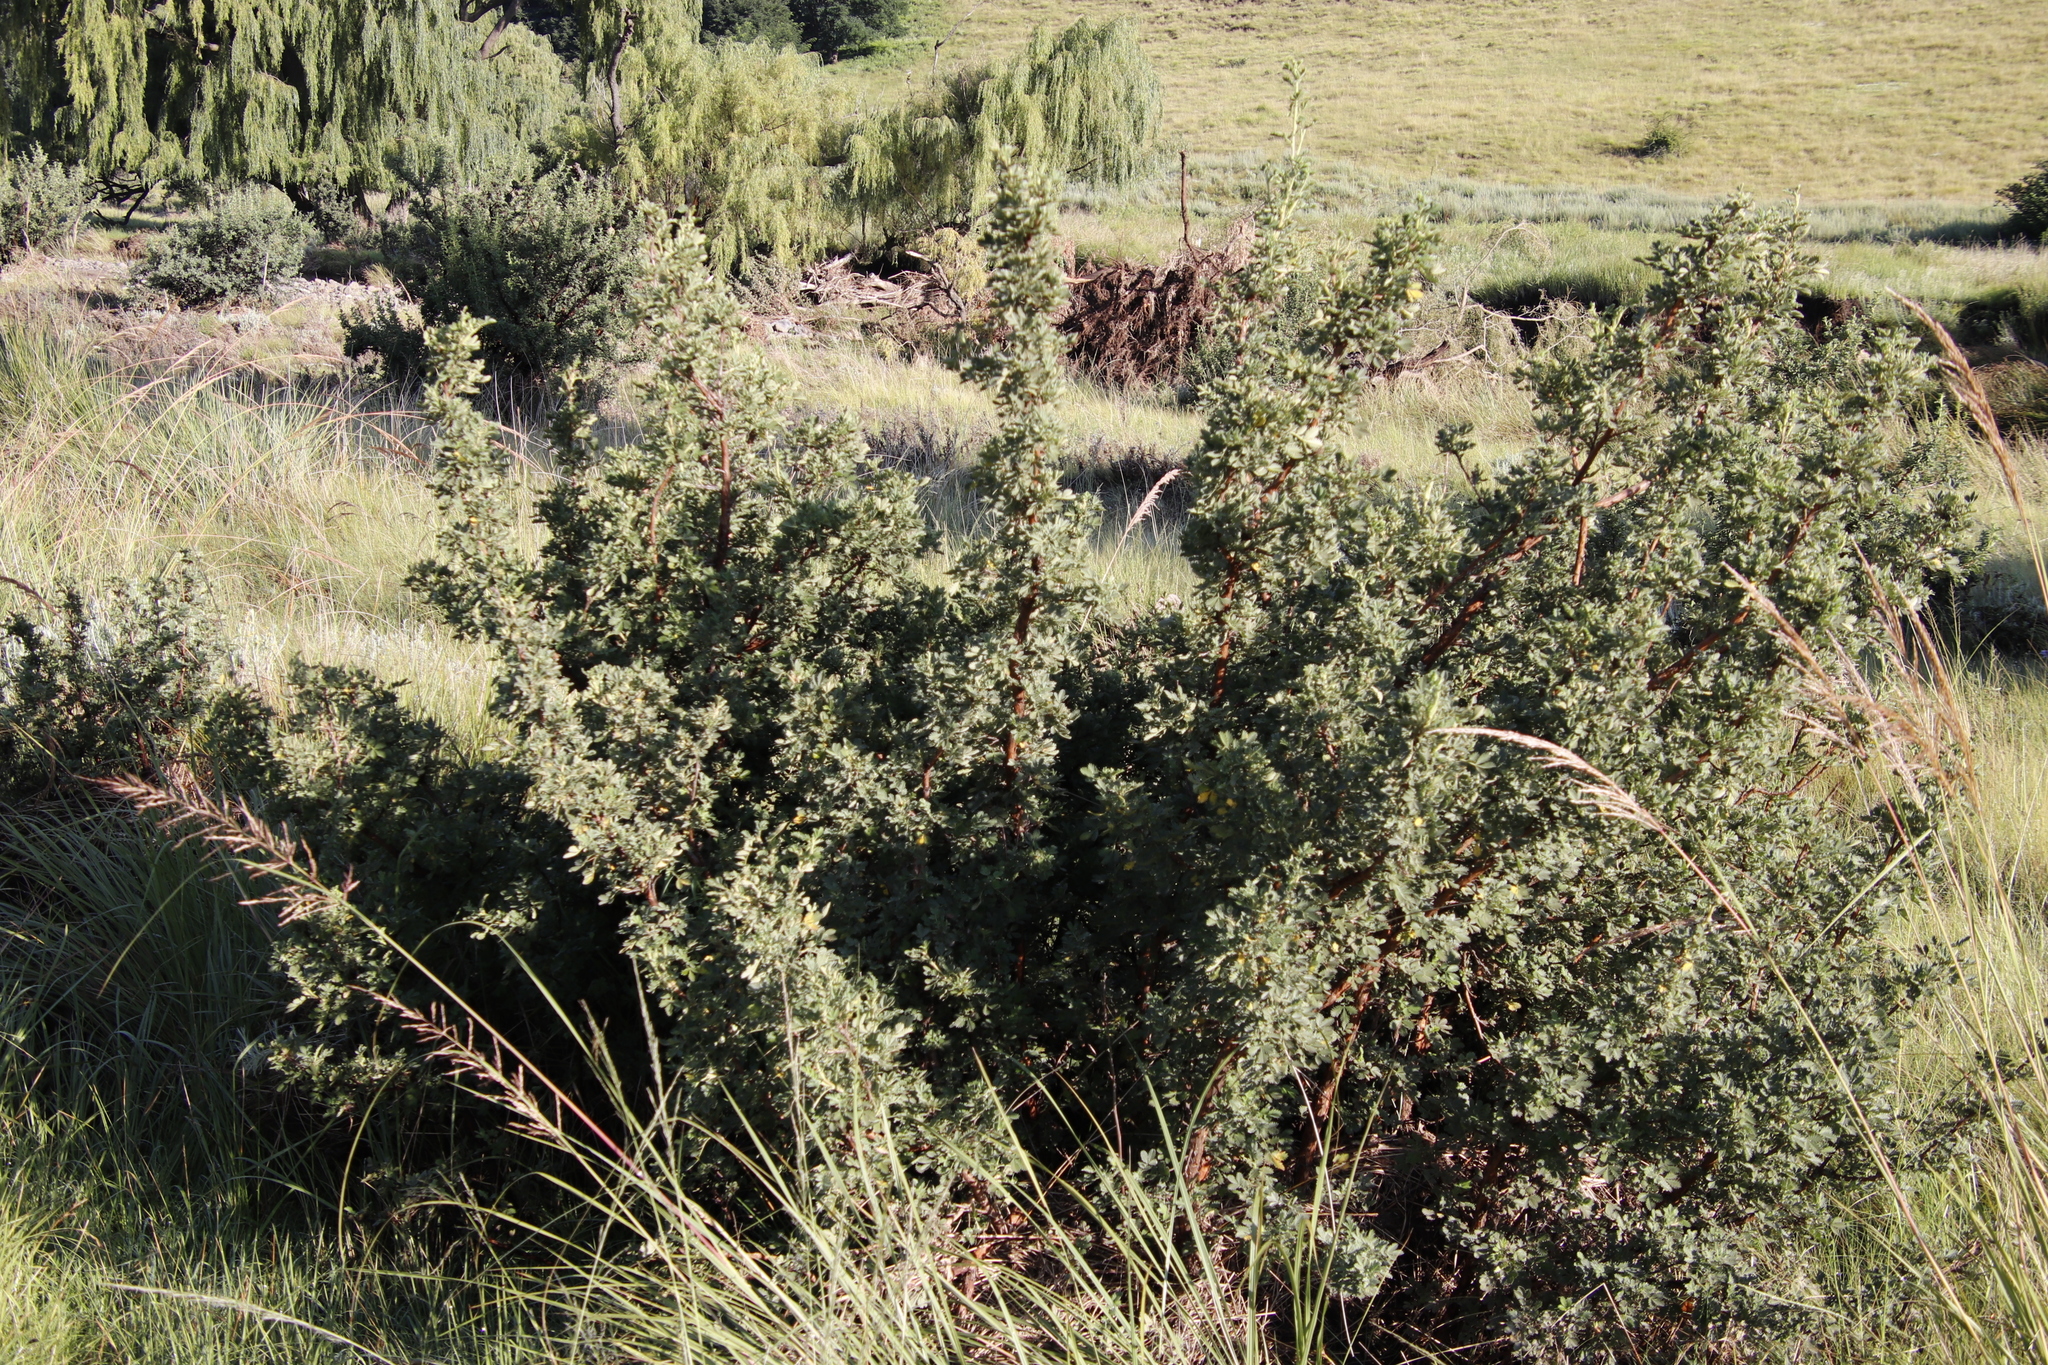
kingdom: Plantae
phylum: Tracheophyta
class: Magnoliopsida
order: Rosales
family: Rosaceae
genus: Leucosidea
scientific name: Leucosidea sericea
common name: Oldwood
